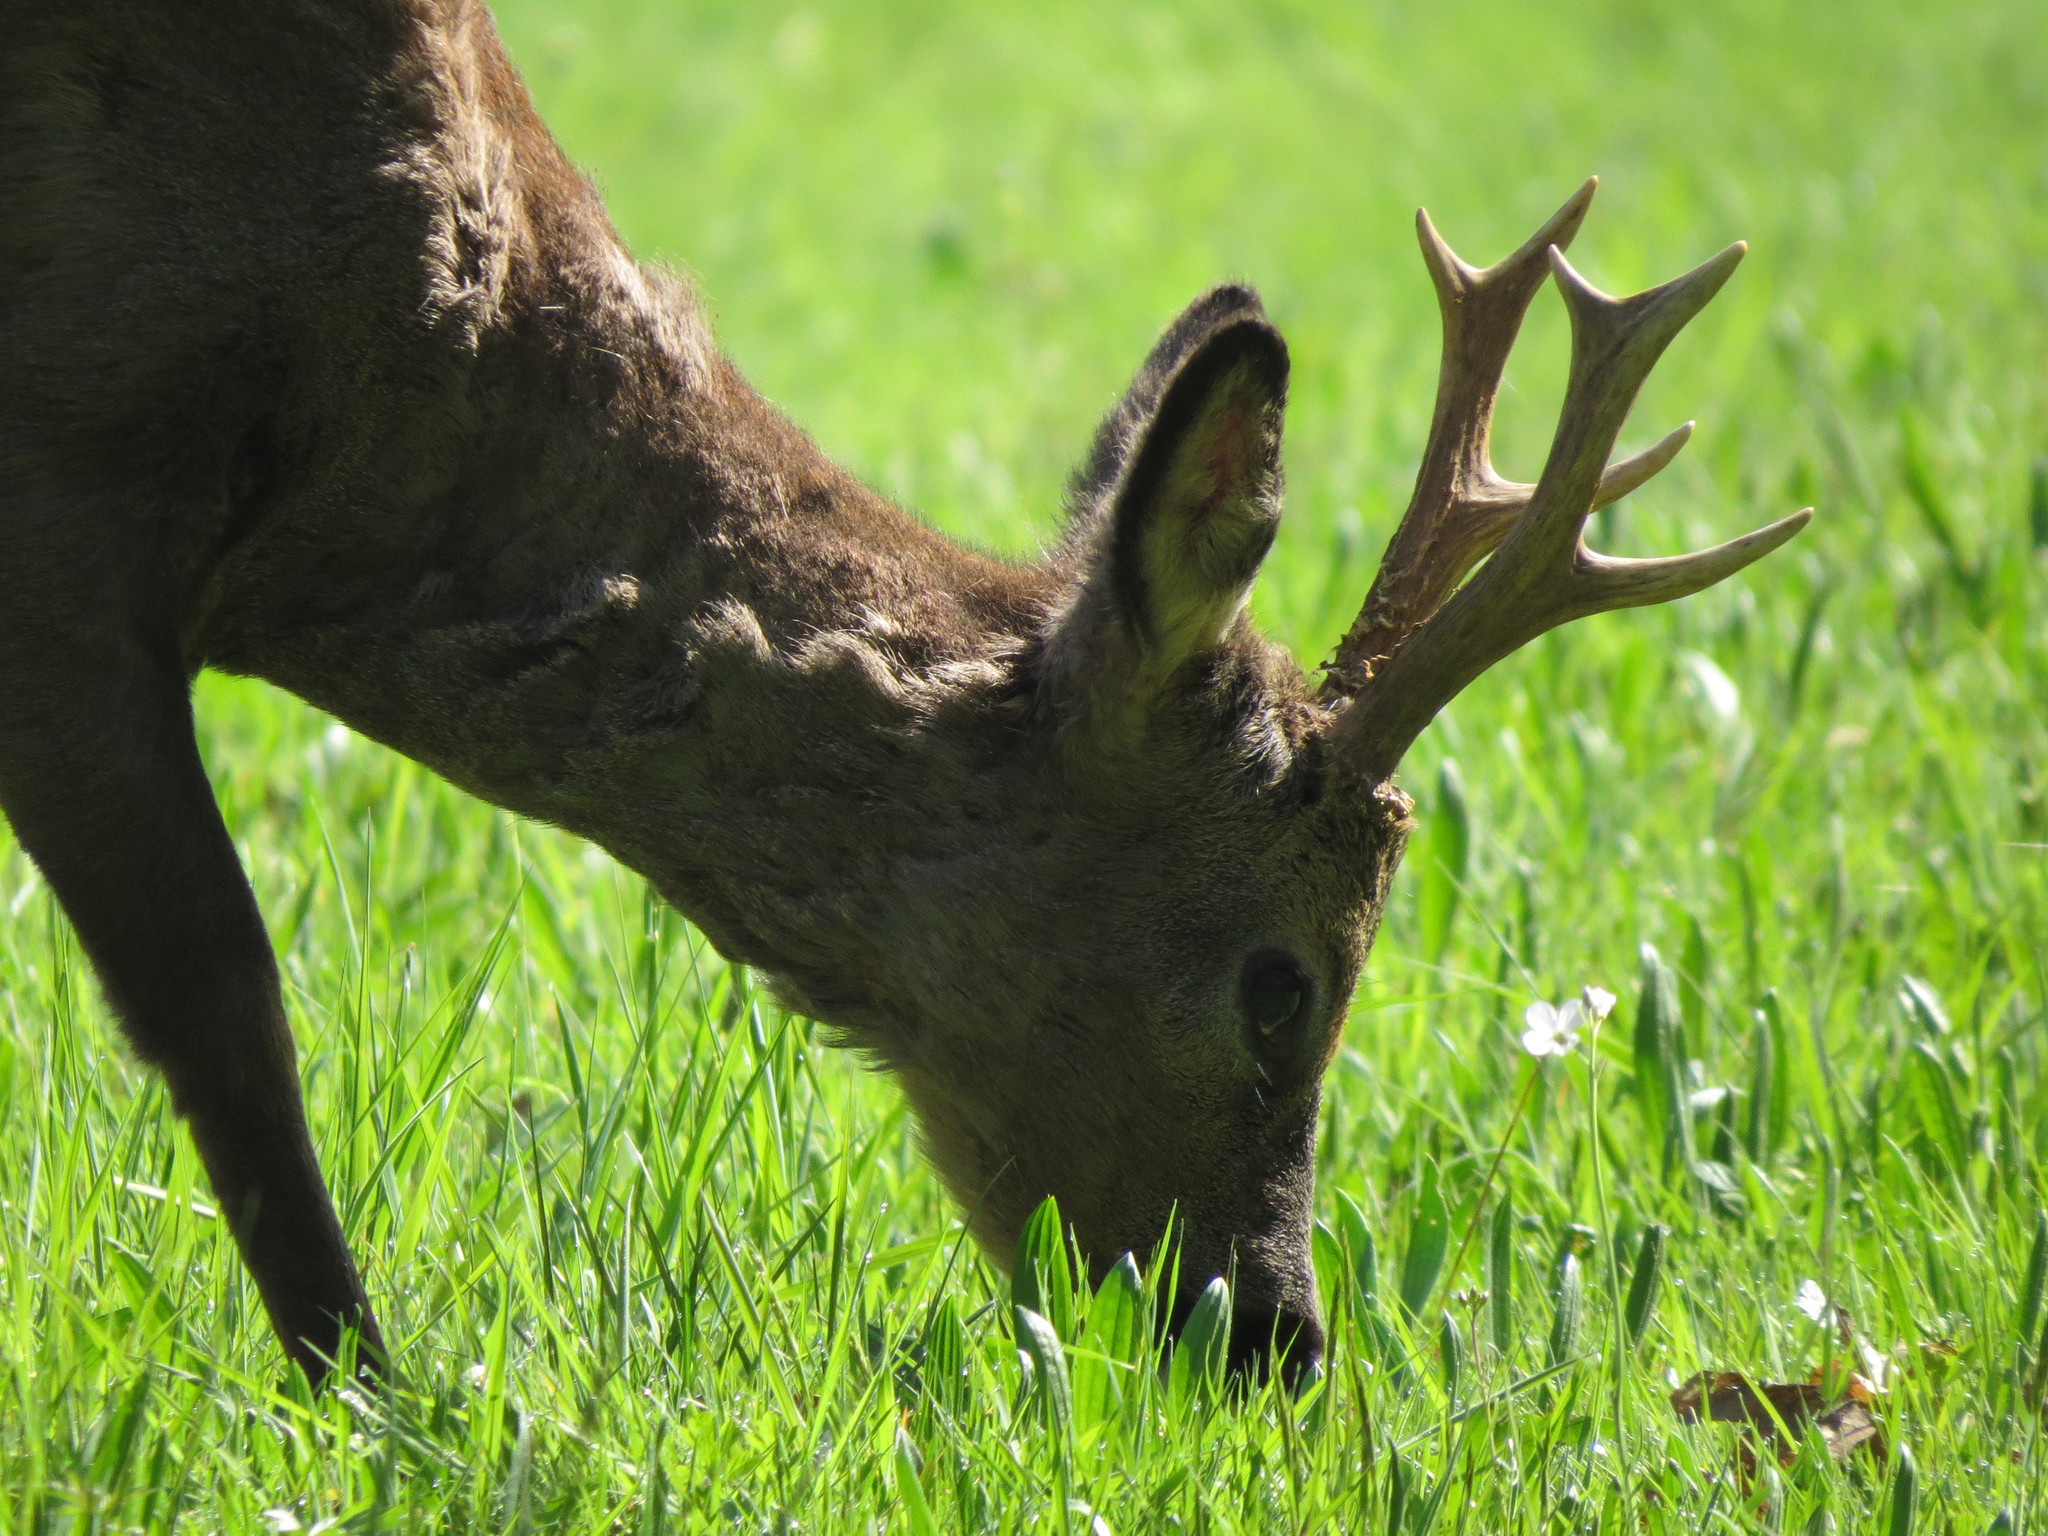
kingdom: Animalia
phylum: Chordata
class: Mammalia
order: Artiodactyla
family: Cervidae
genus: Capreolus
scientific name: Capreolus capreolus
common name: Western roe deer
